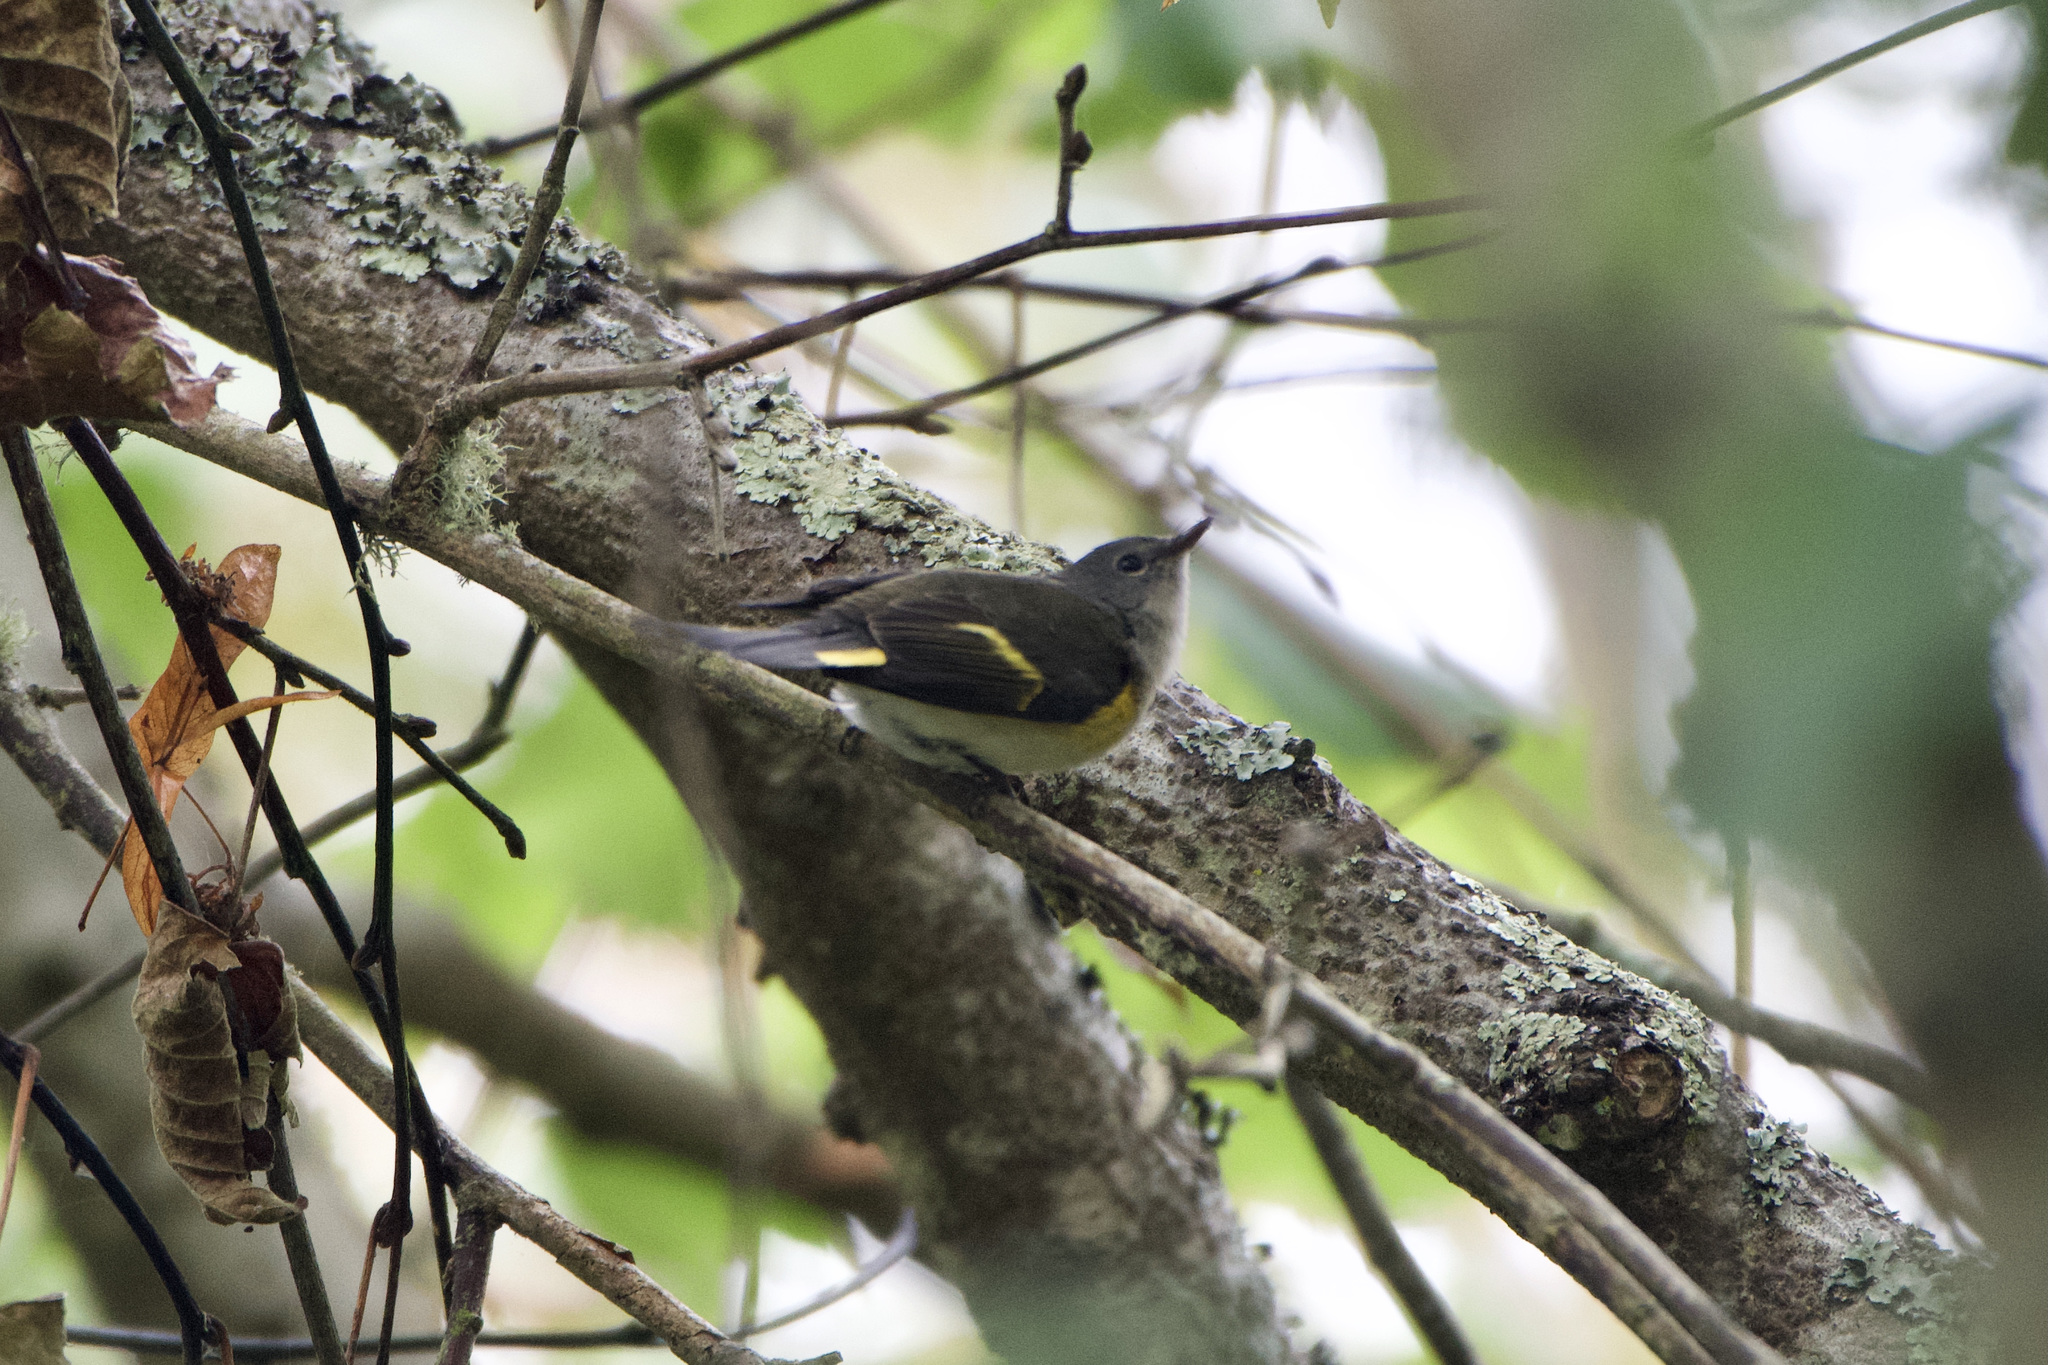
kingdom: Animalia
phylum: Chordata
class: Aves
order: Passeriformes
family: Parulidae
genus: Setophaga
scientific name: Setophaga ruticilla
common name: American redstart
